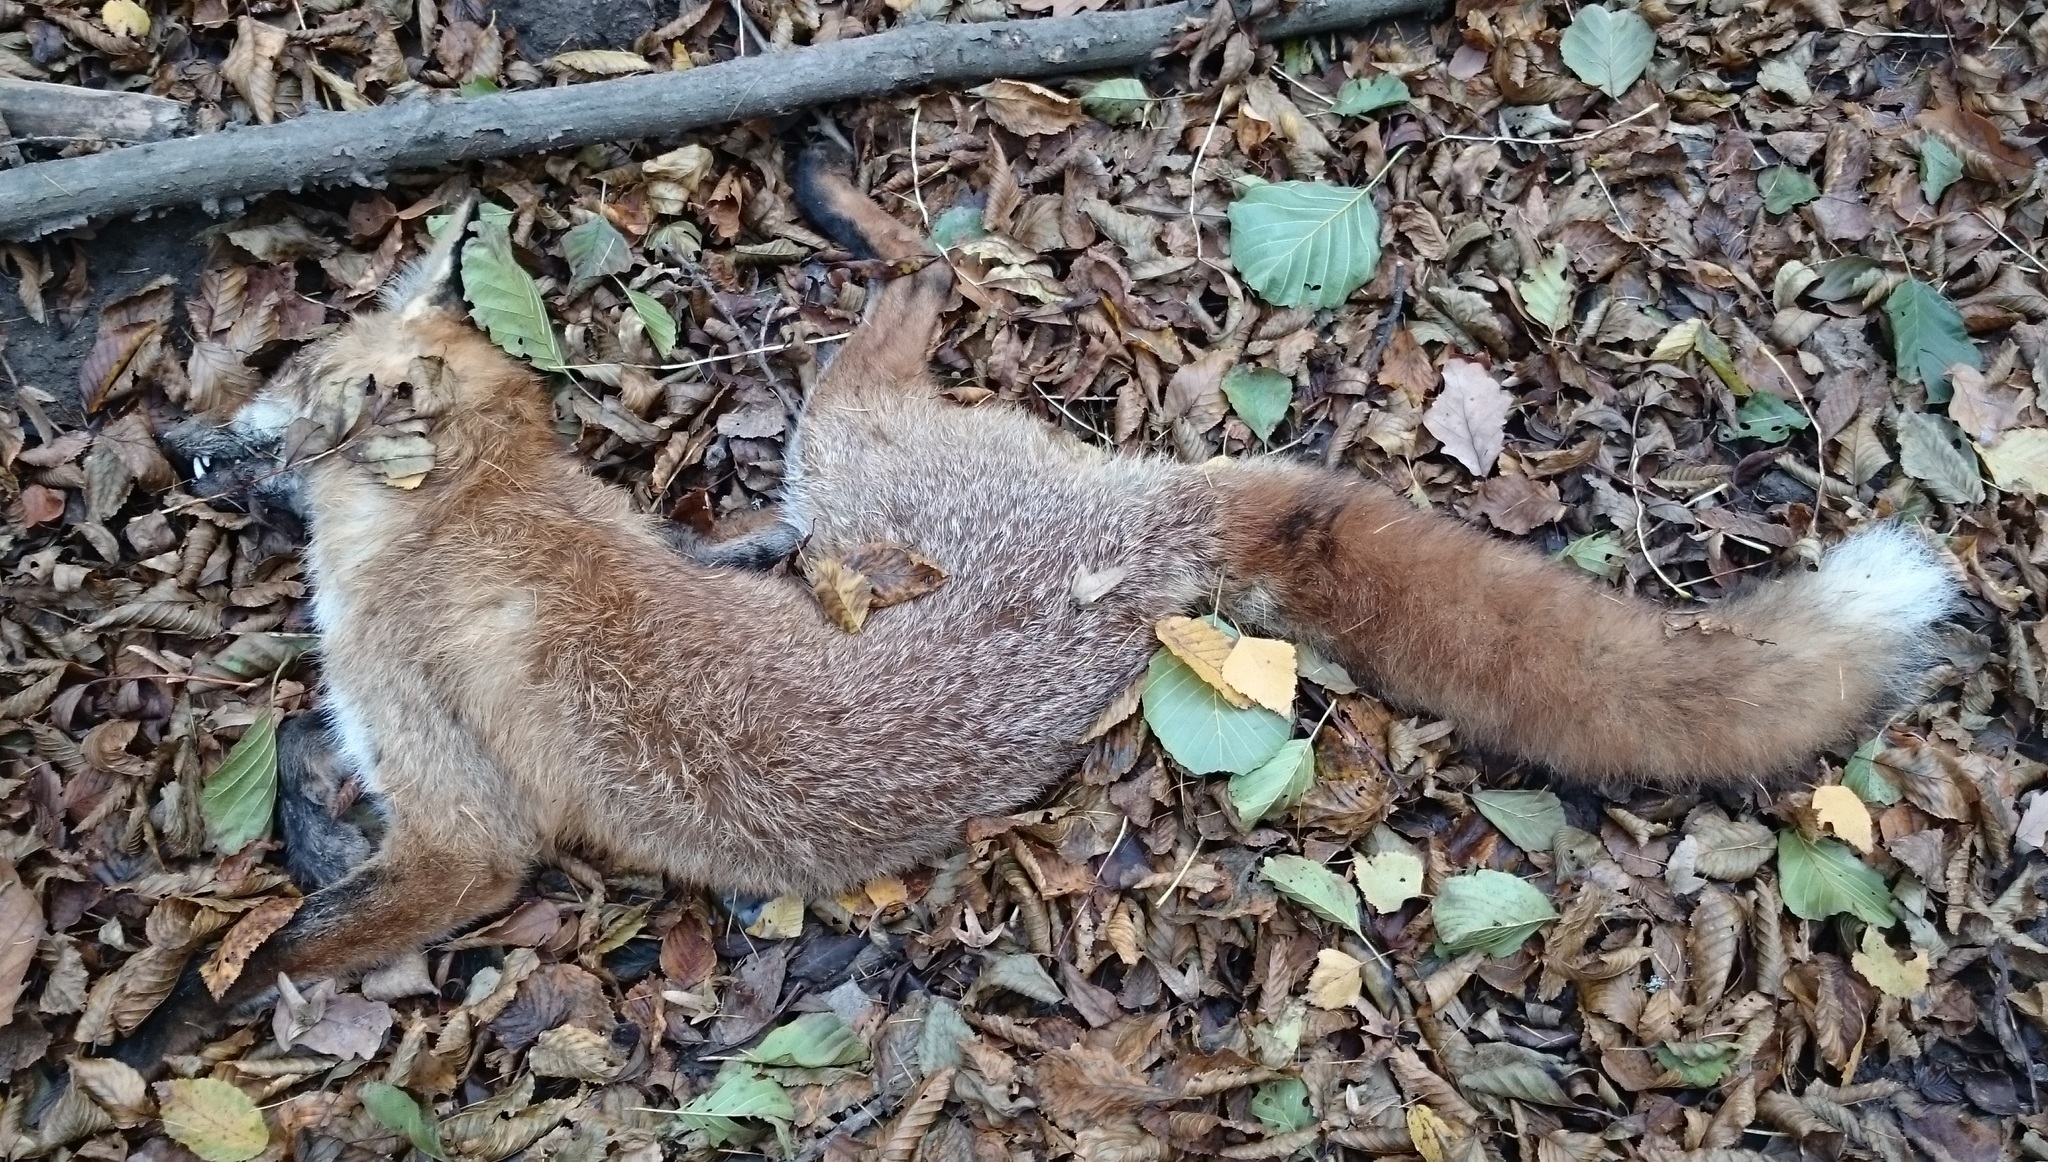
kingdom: Animalia
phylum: Chordata
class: Mammalia
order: Carnivora
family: Canidae
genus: Vulpes
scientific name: Vulpes vulpes
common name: Red fox
